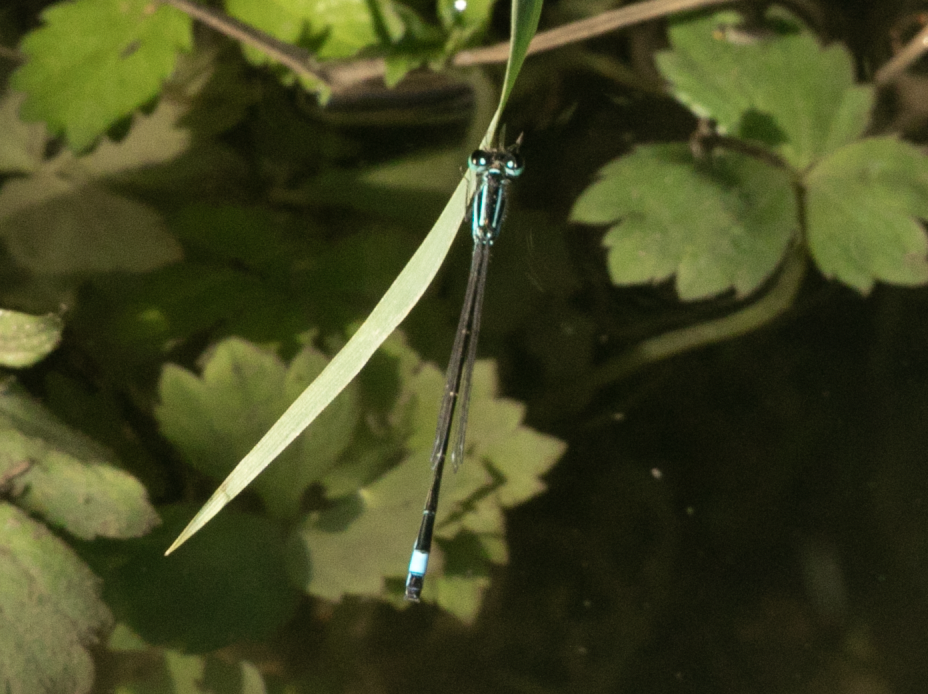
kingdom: Animalia
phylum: Arthropoda
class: Insecta
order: Odonata
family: Coenagrionidae
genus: Ischnura
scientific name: Ischnura elegans
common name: Blue-tailed damselfly
